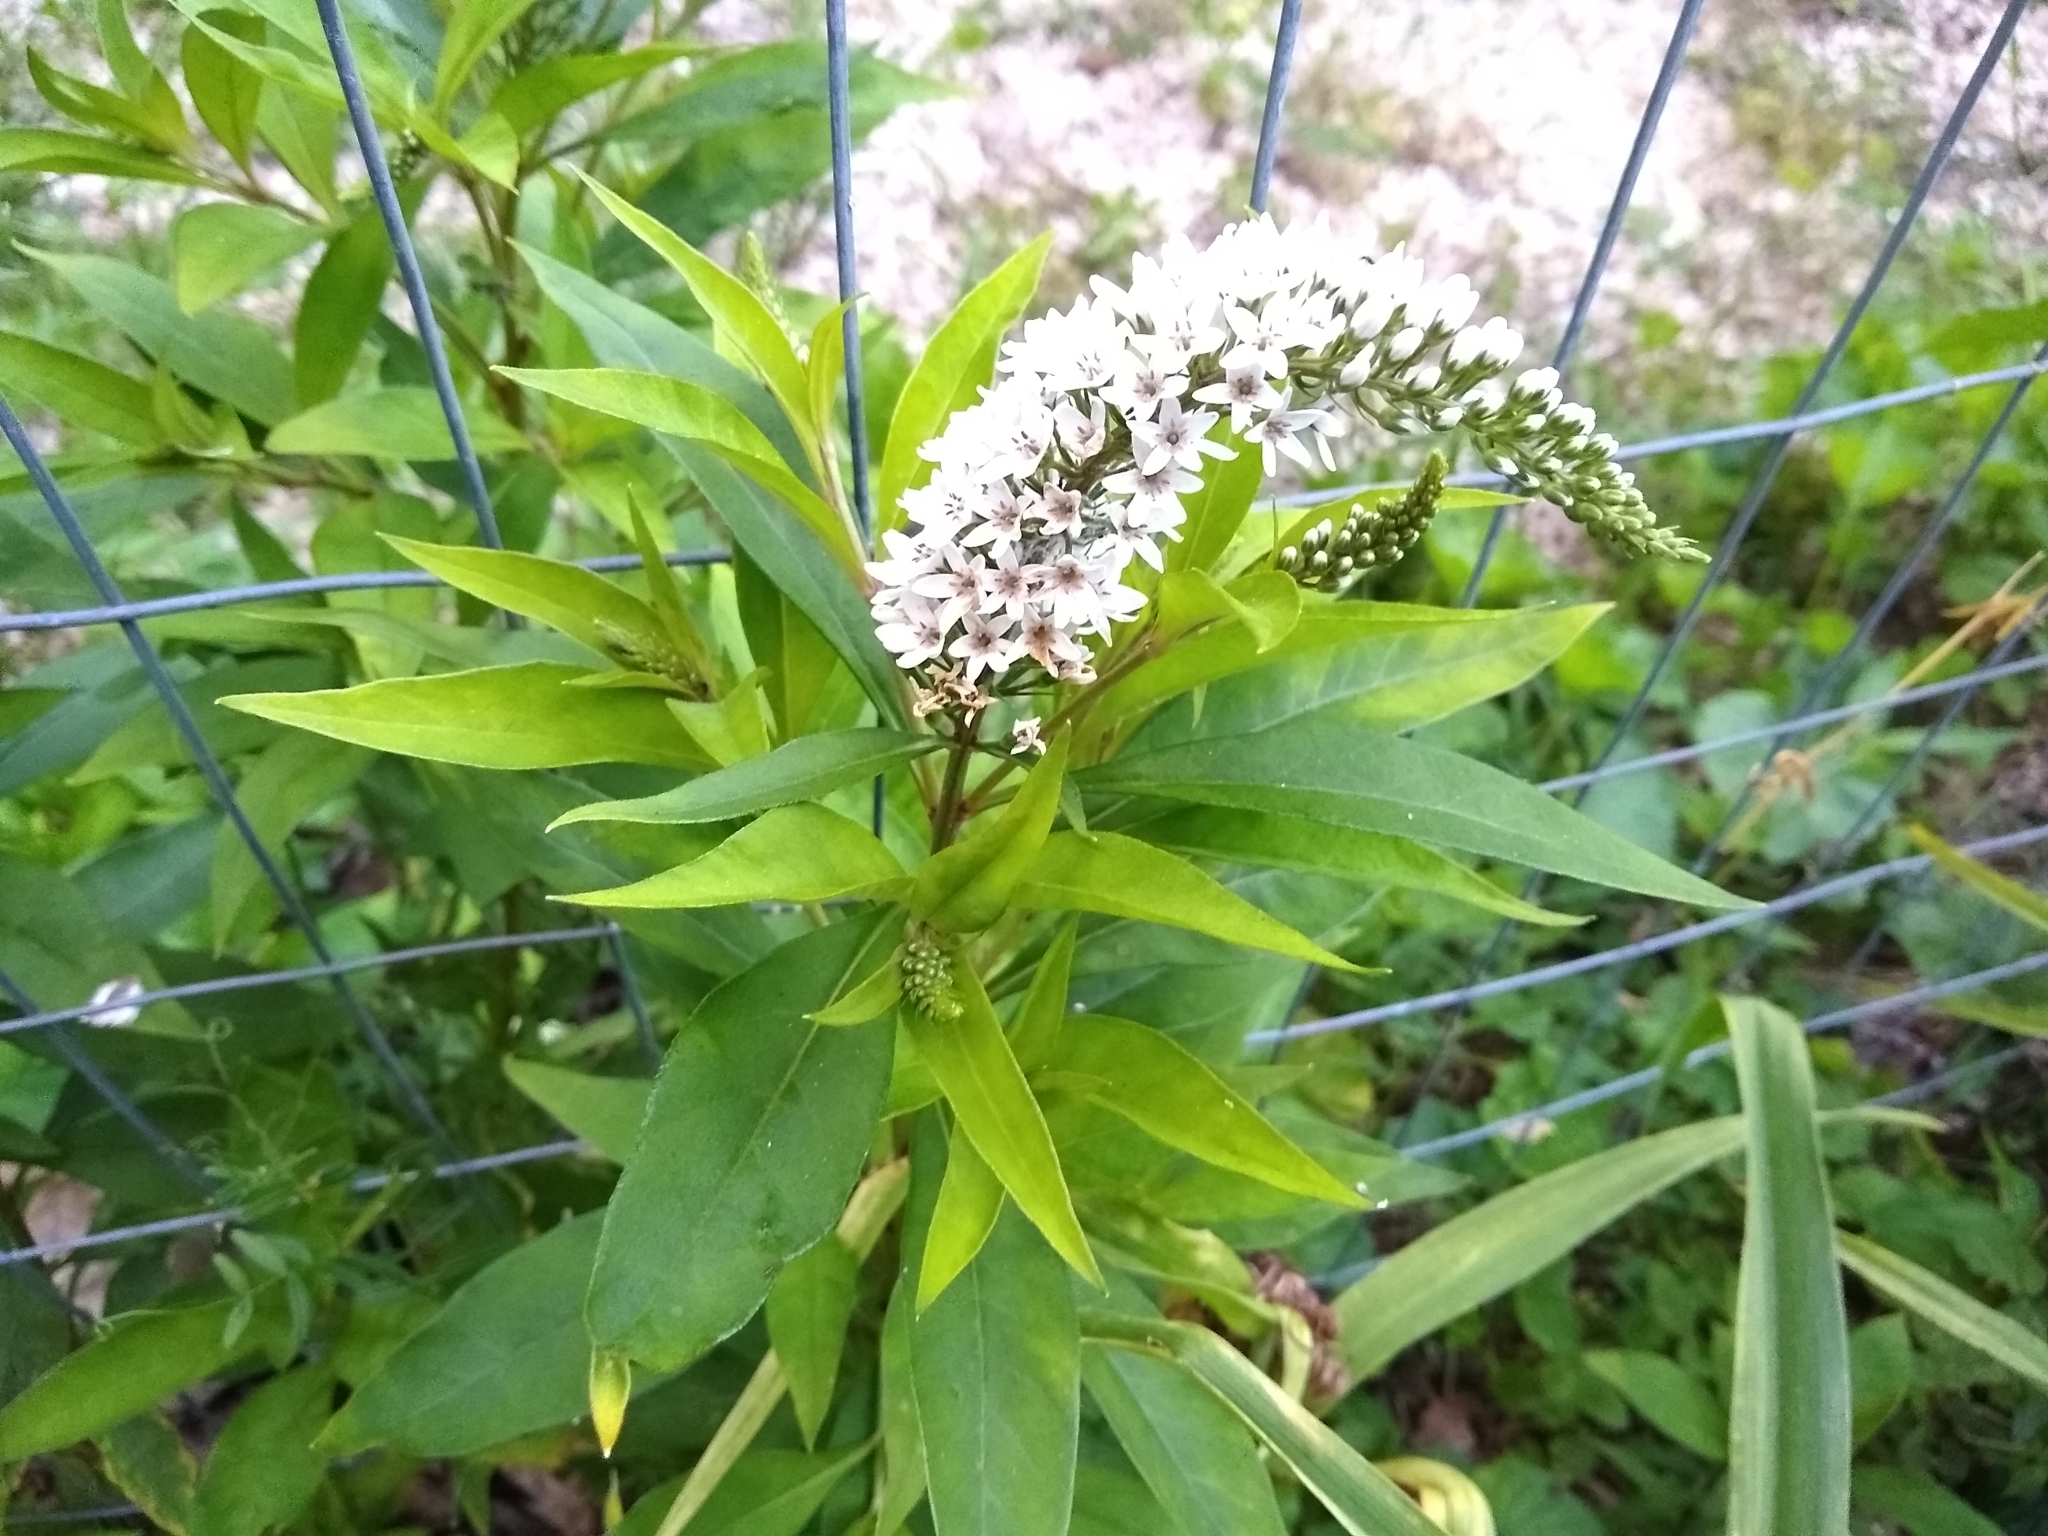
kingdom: Plantae
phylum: Tracheophyta
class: Magnoliopsida
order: Ericales
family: Primulaceae
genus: Lysimachia
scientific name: Lysimachia clethroides
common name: Gooseneck loosestrife
